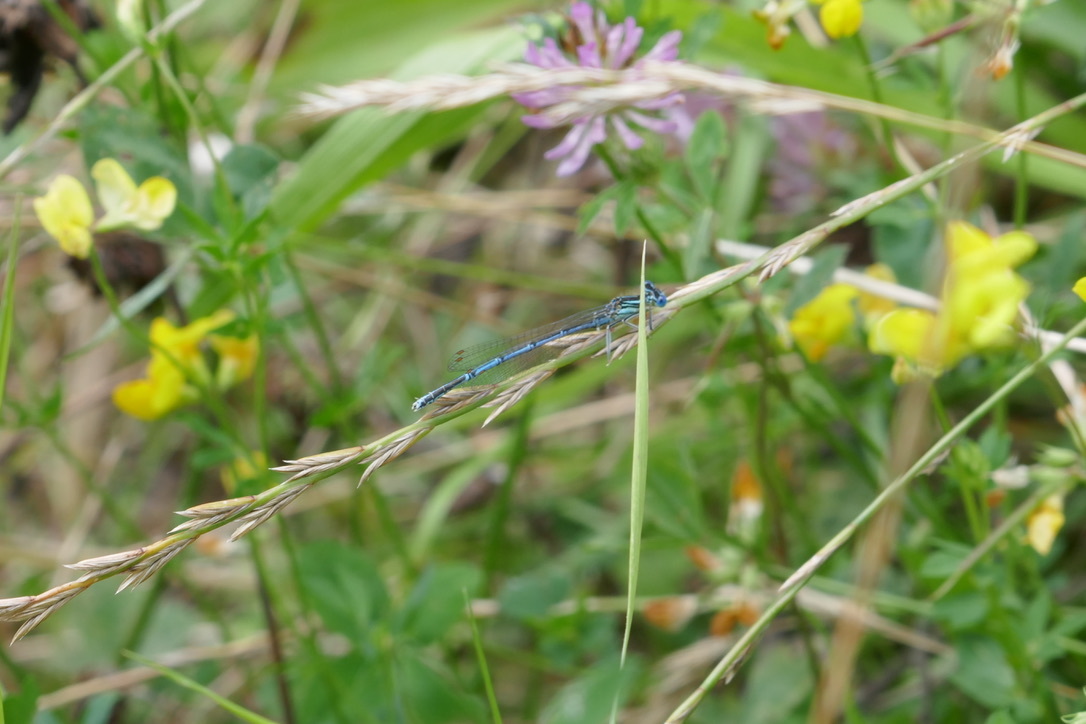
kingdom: Animalia
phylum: Arthropoda
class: Insecta
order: Odonata
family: Platycnemididae
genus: Platycnemis
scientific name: Platycnemis pennipes
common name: White-legged damselfly
